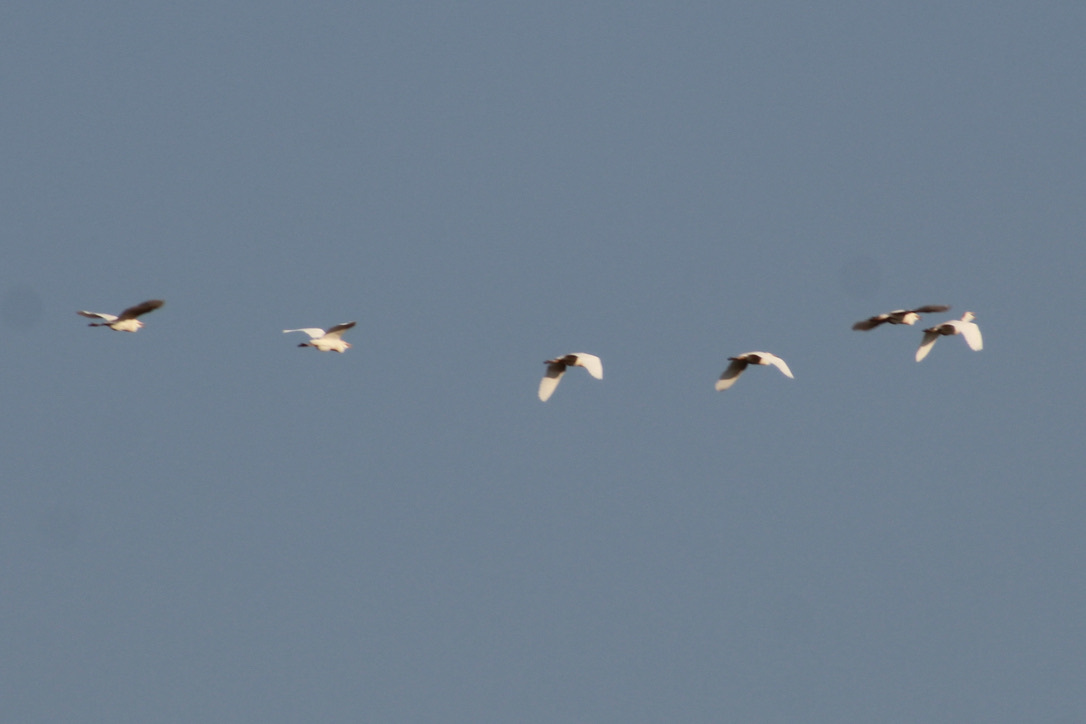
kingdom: Animalia
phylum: Chordata
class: Aves
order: Pelecaniformes
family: Ardeidae
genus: Bubulcus
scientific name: Bubulcus ibis
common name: Cattle egret
